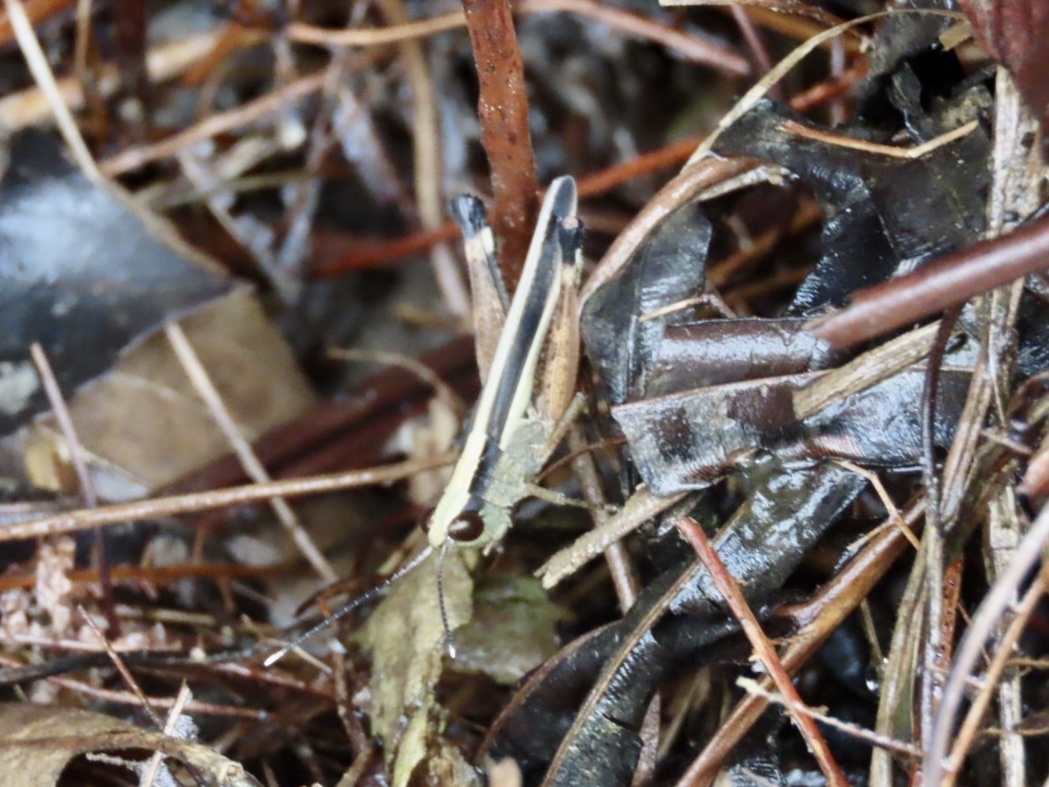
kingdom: Animalia
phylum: Arthropoda
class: Insecta
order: Orthoptera
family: Acrididae
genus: Ceracris
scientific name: Ceracris fasciata
